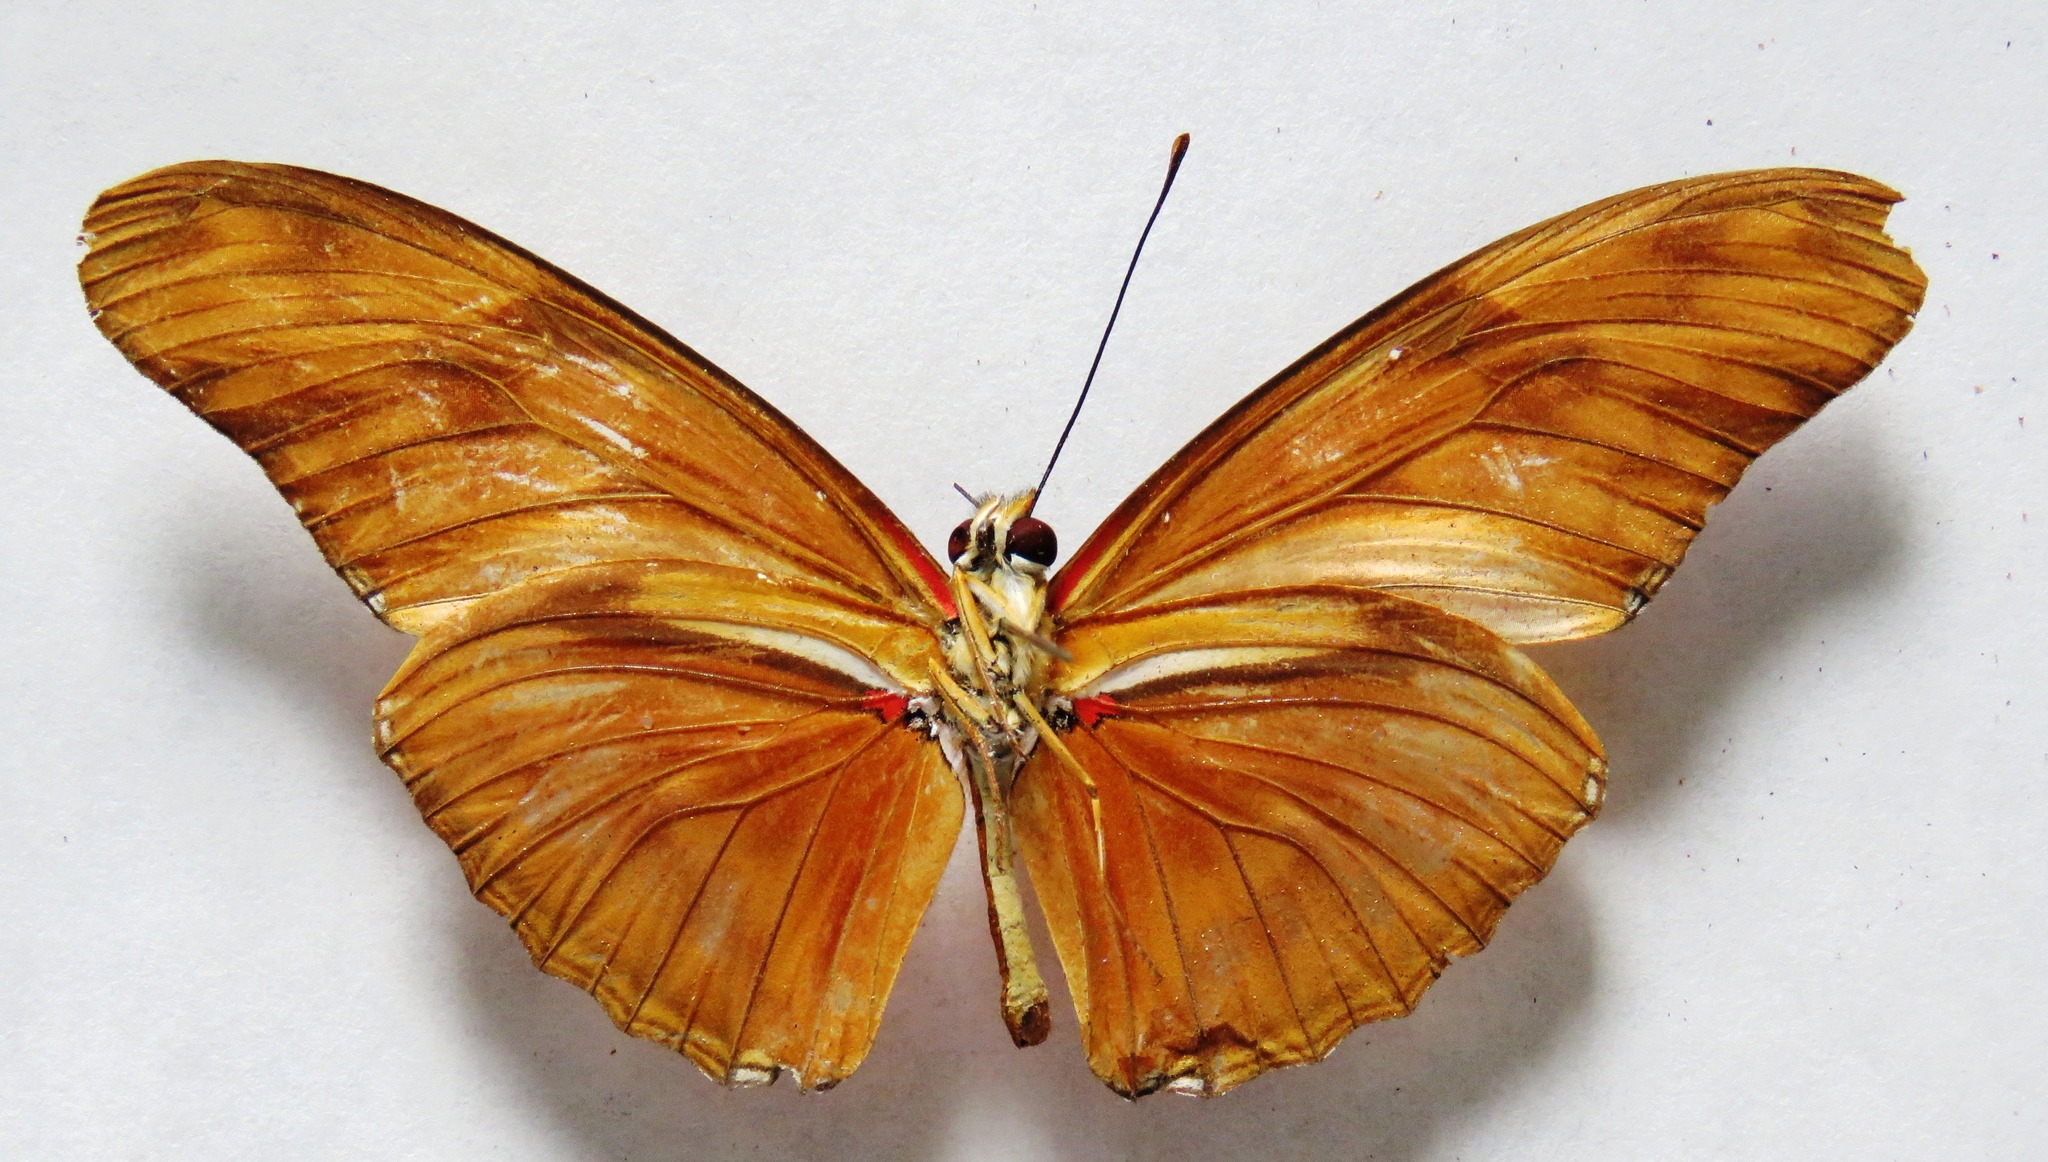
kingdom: Animalia
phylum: Arthropoda
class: Insecta
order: Lepidoptera
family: Nymphalidae
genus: Dryas
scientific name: Dryas iulia
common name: Flambeau
